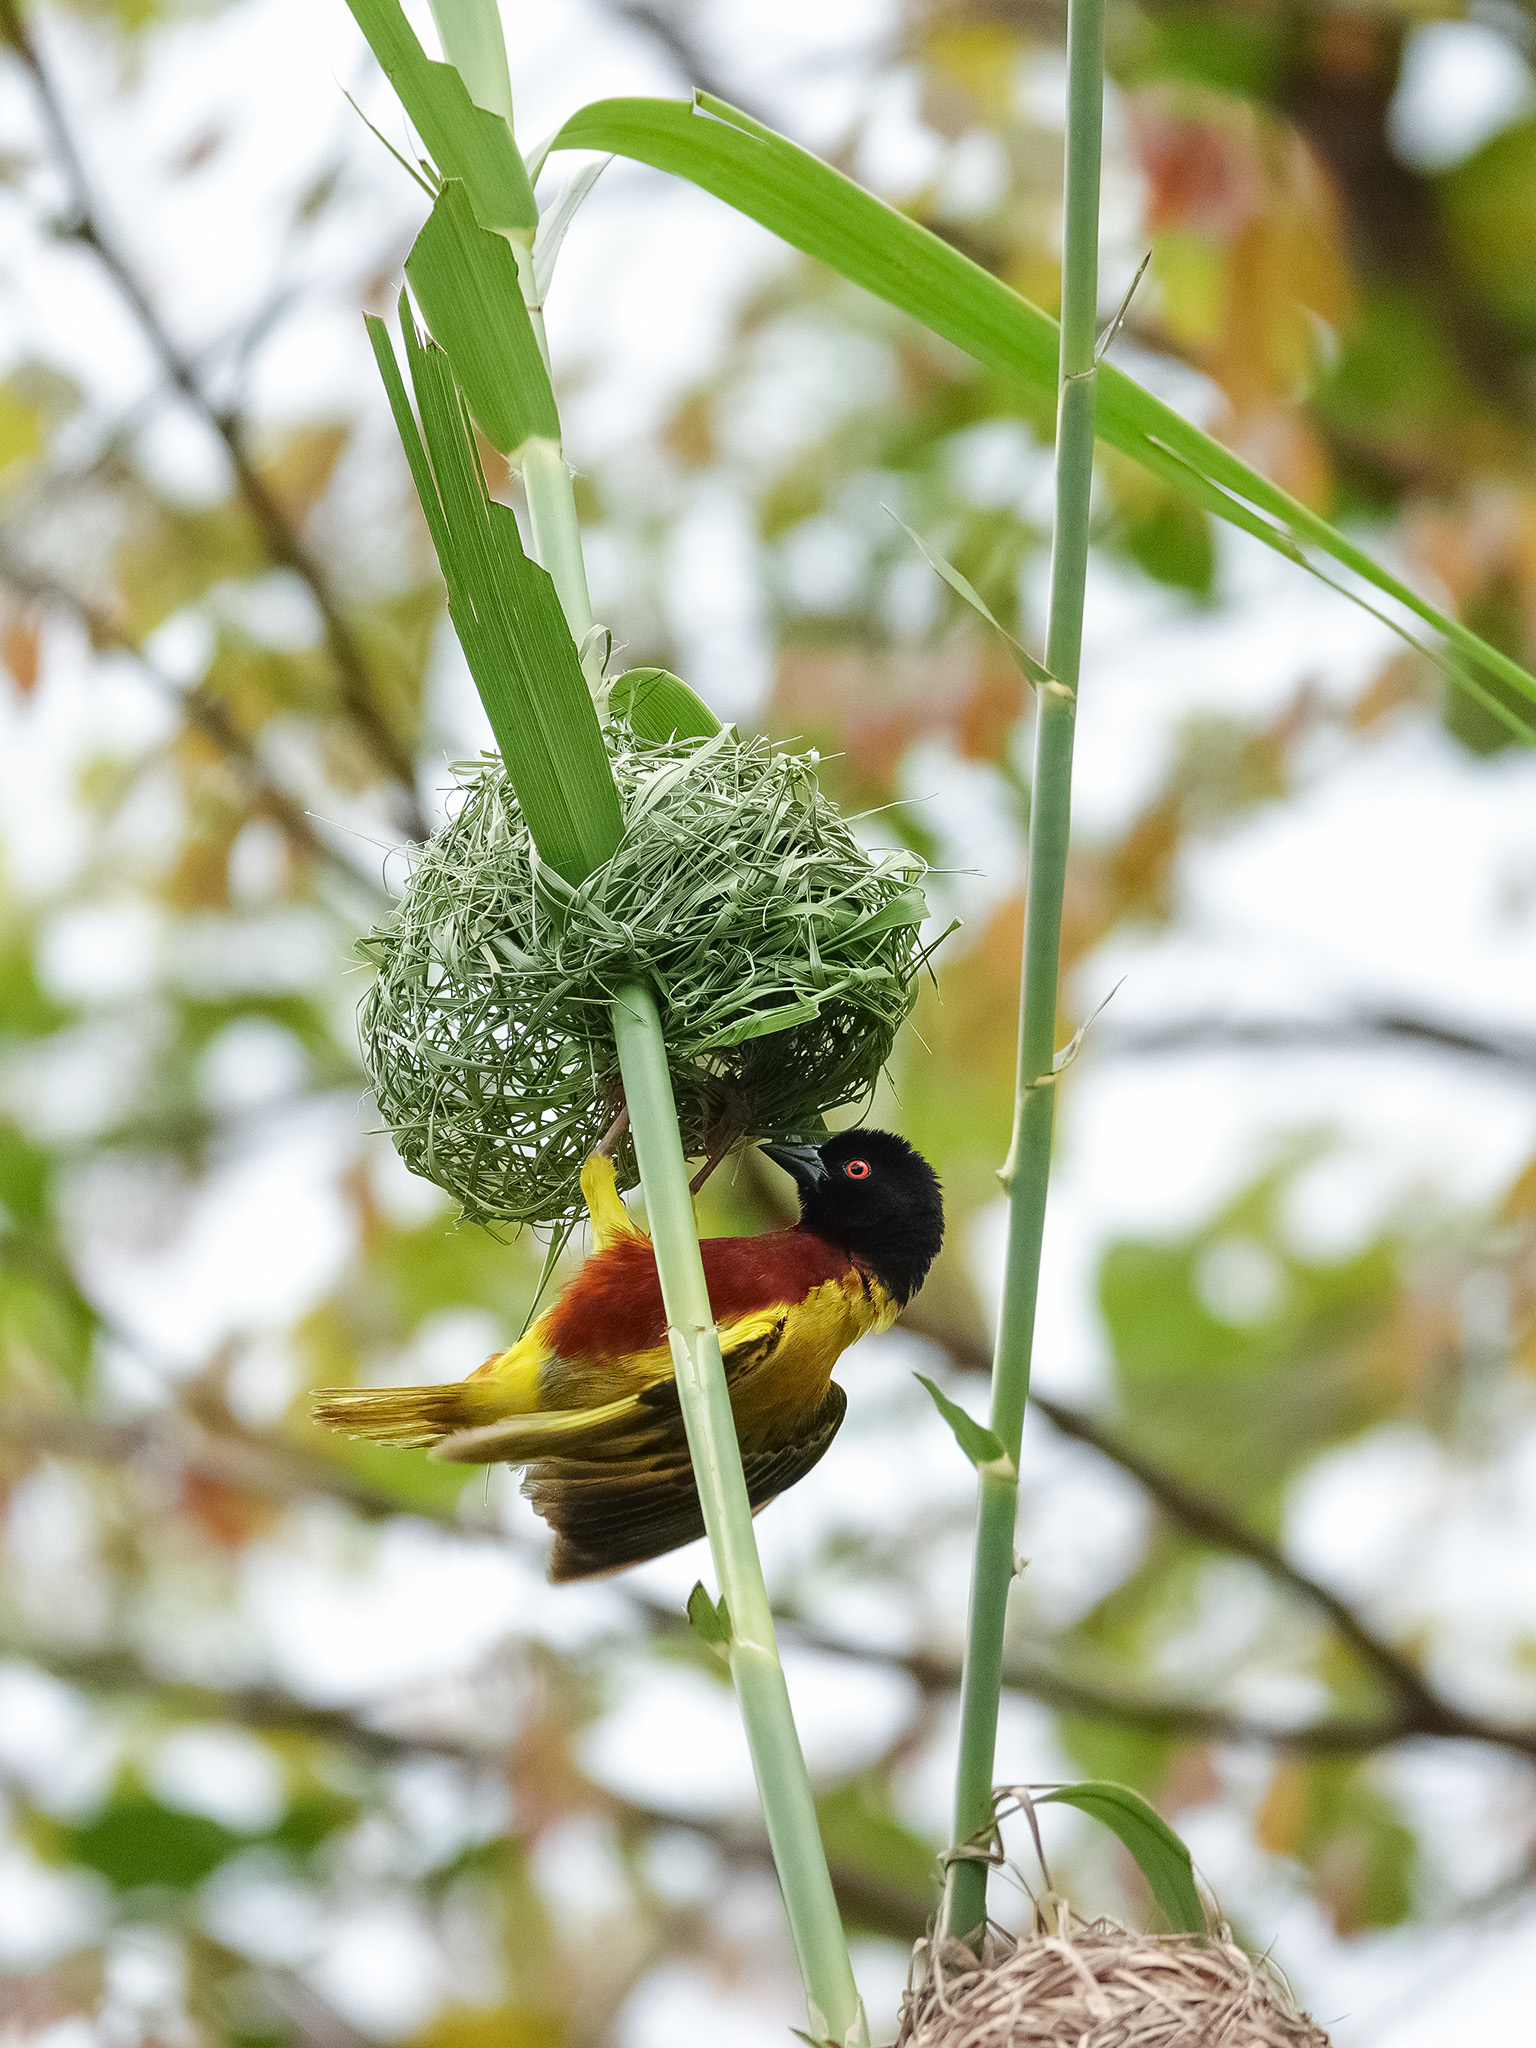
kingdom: Animalia
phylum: Chordata
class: Aves
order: Passeriformes
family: Ploceidae
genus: Ploceus
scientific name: Ploceus jacksoni
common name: Golden-backed weaver
